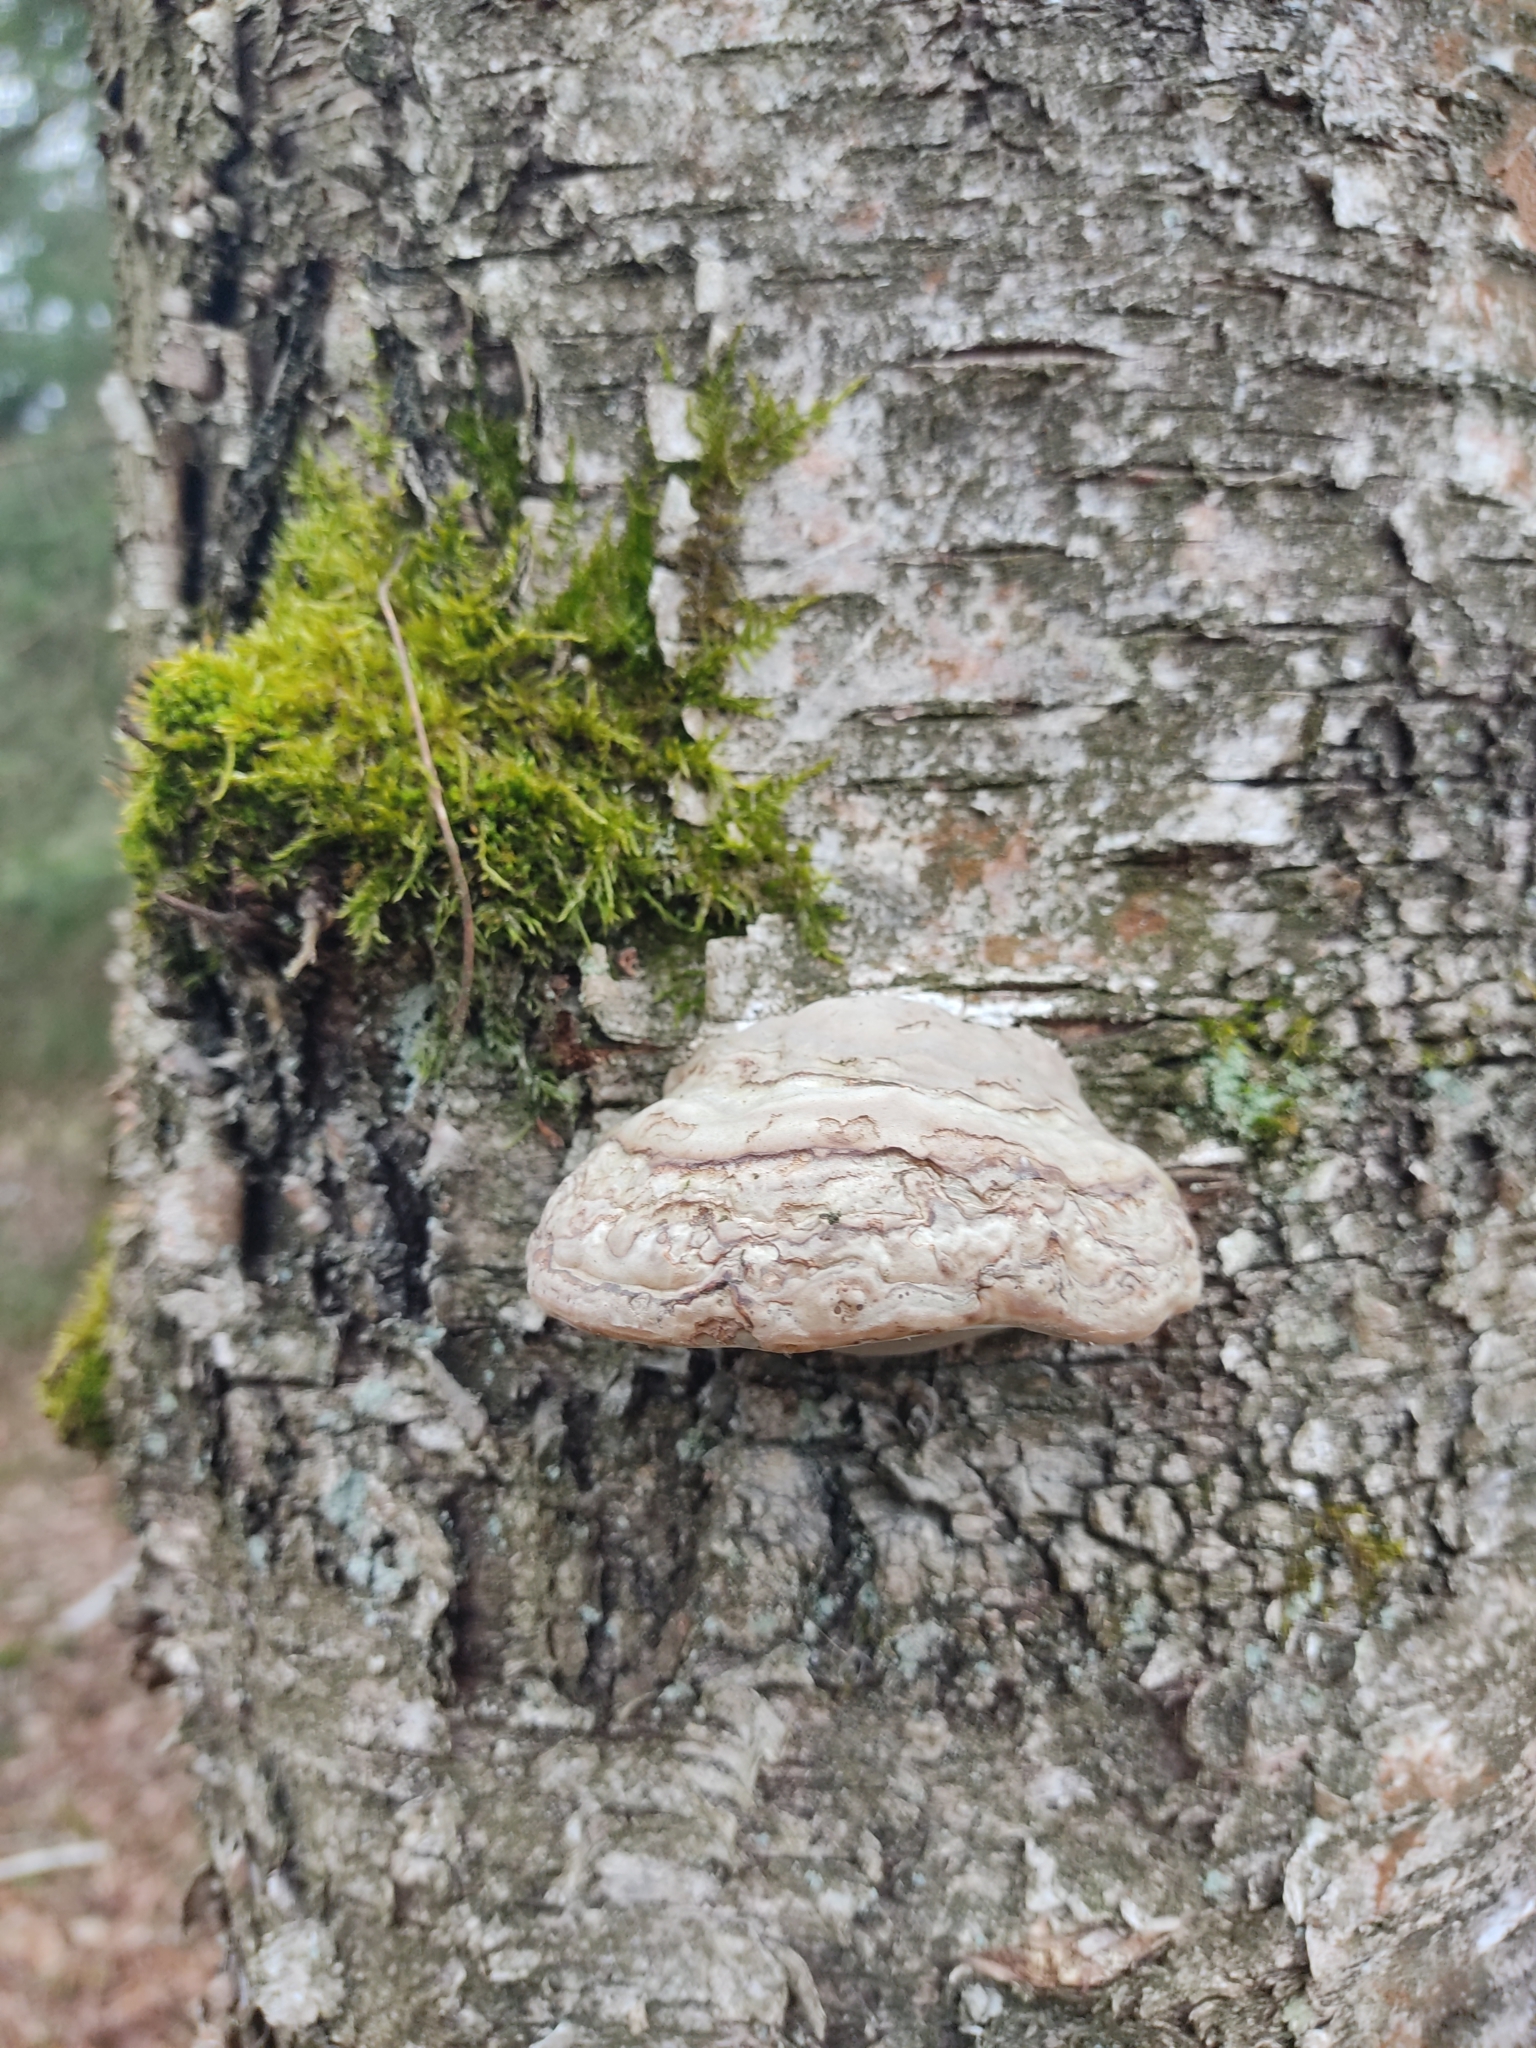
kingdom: Fungi
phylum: Basidiomycota
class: Agaricomycetes
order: Polyporales
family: Polyporaceae
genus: Fomes
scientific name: Fomes fomentarius
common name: Hoof fungus
